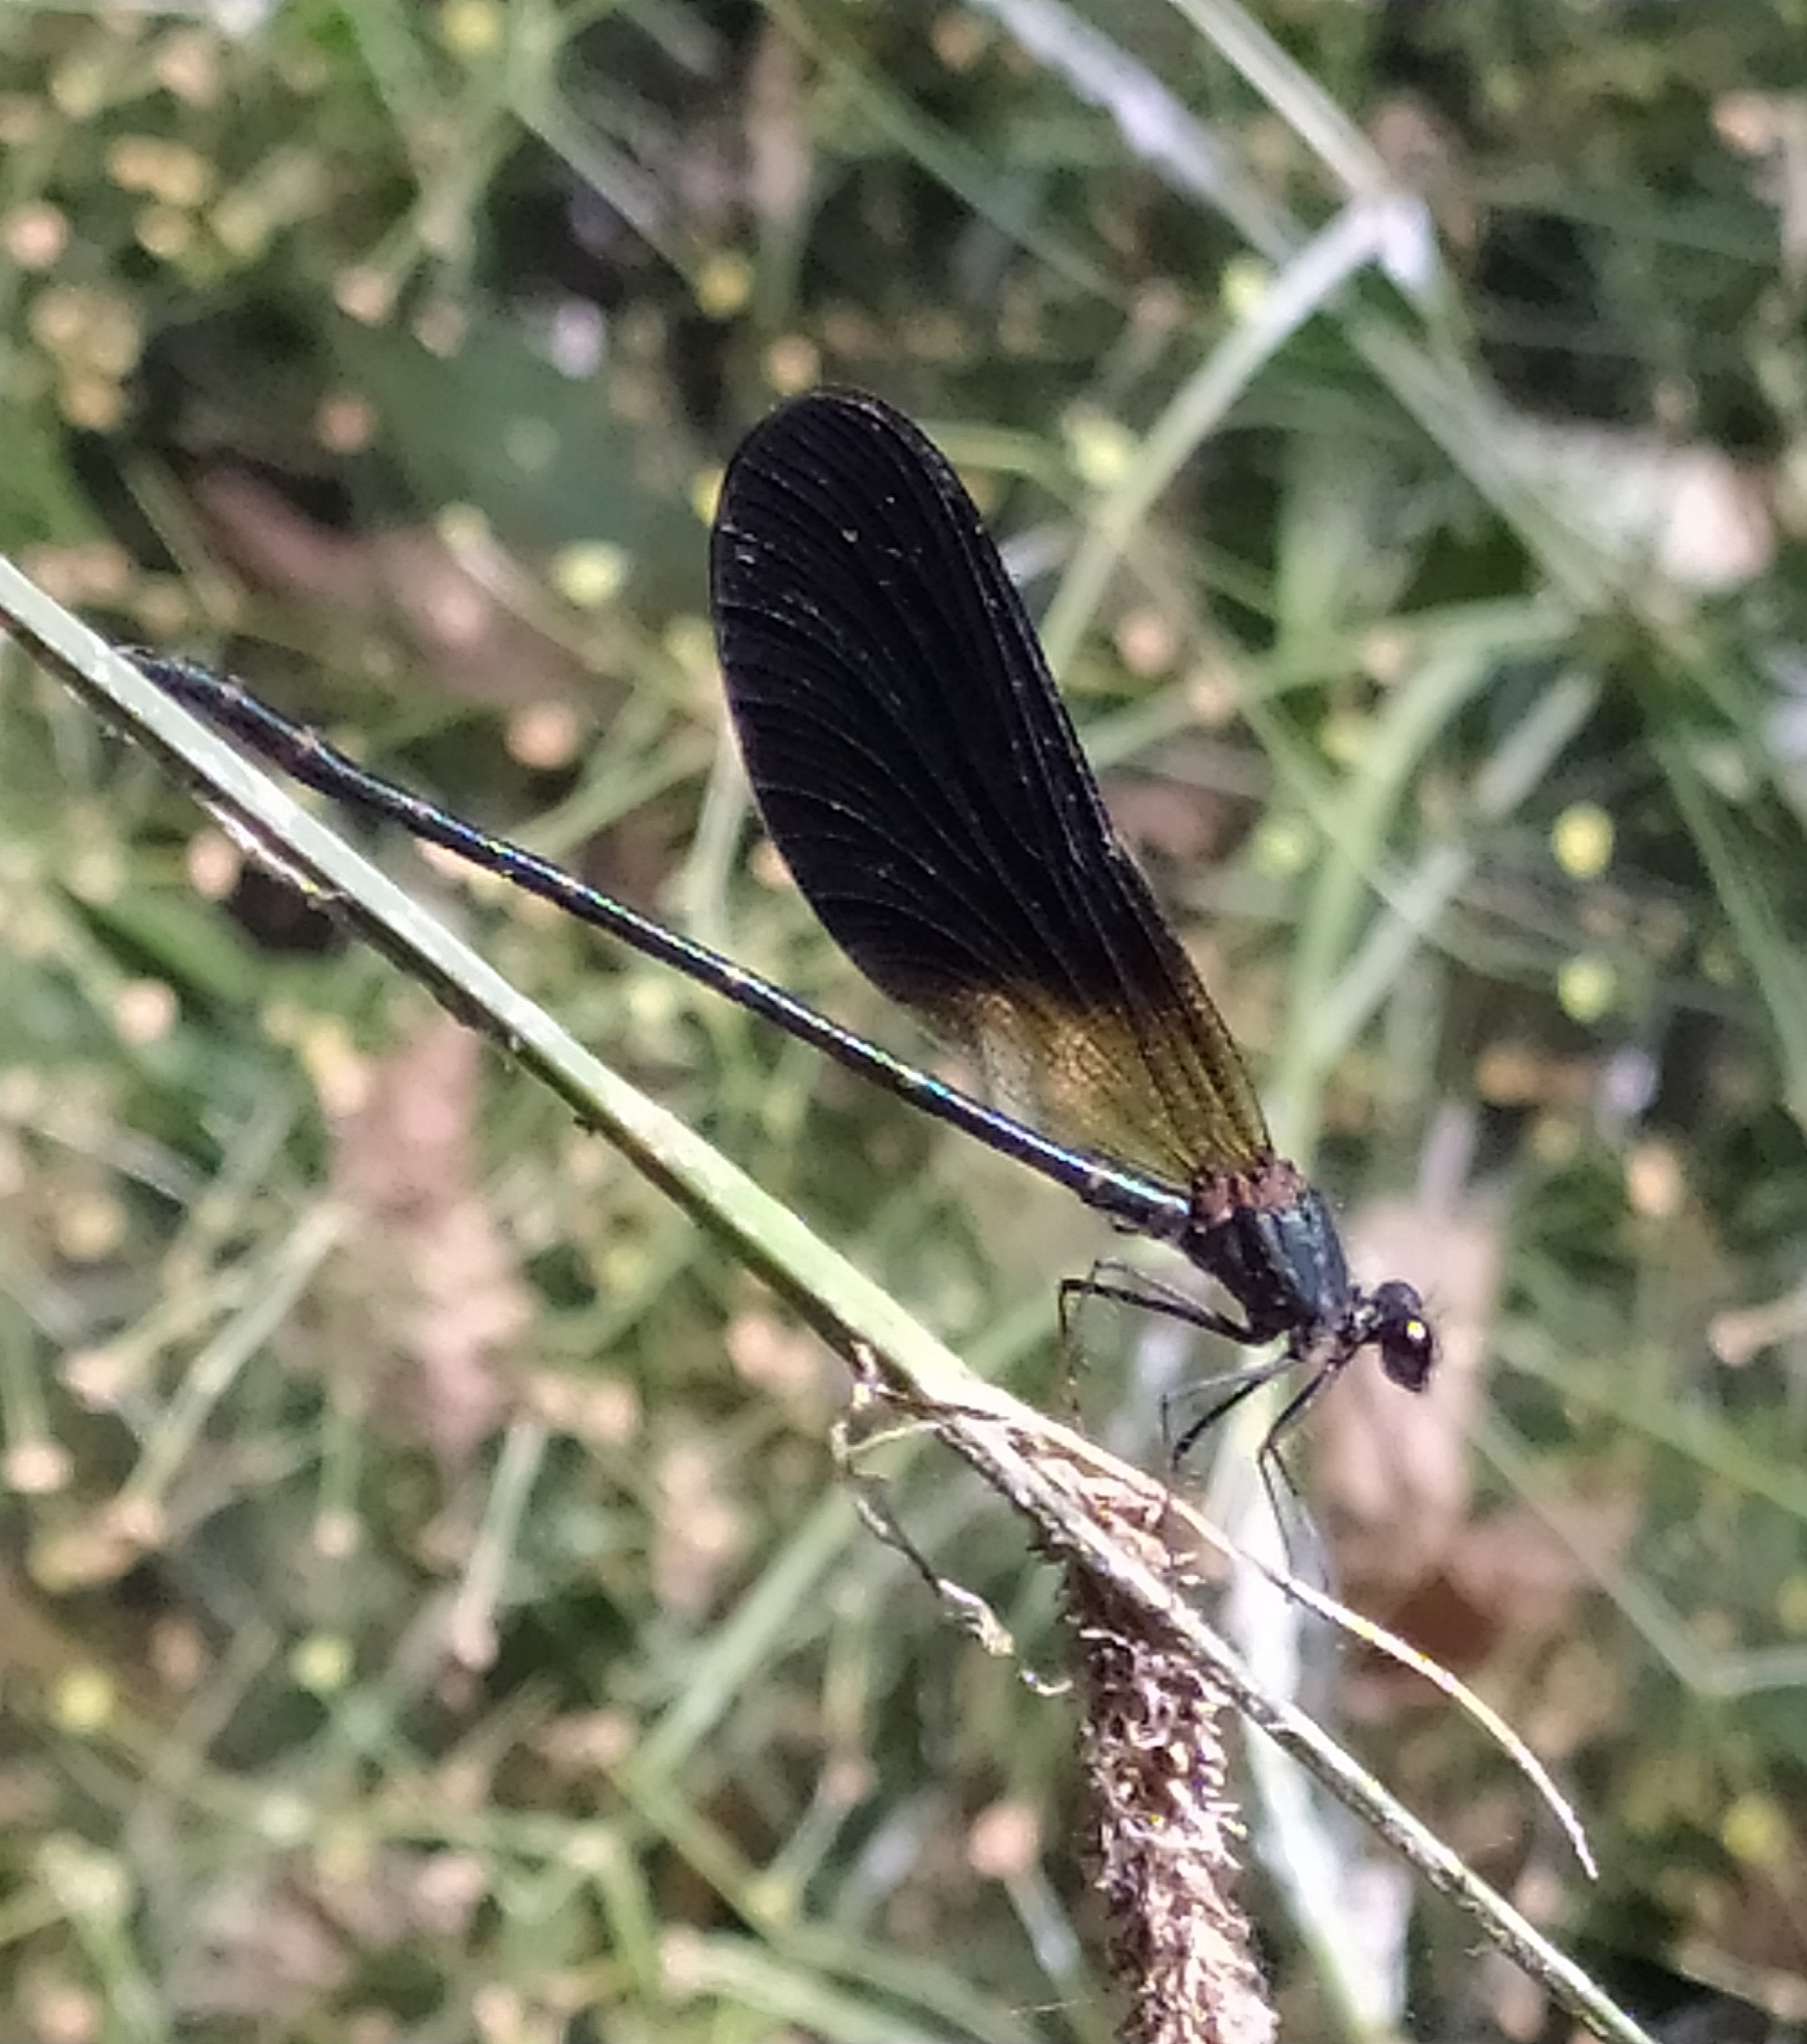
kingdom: Animalia
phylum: Arthropoda
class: Insecta
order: Odonata
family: Calopterygidae
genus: Calopteryx
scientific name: Calopteryx haemorrhoidalis
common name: Copper demoiselle
